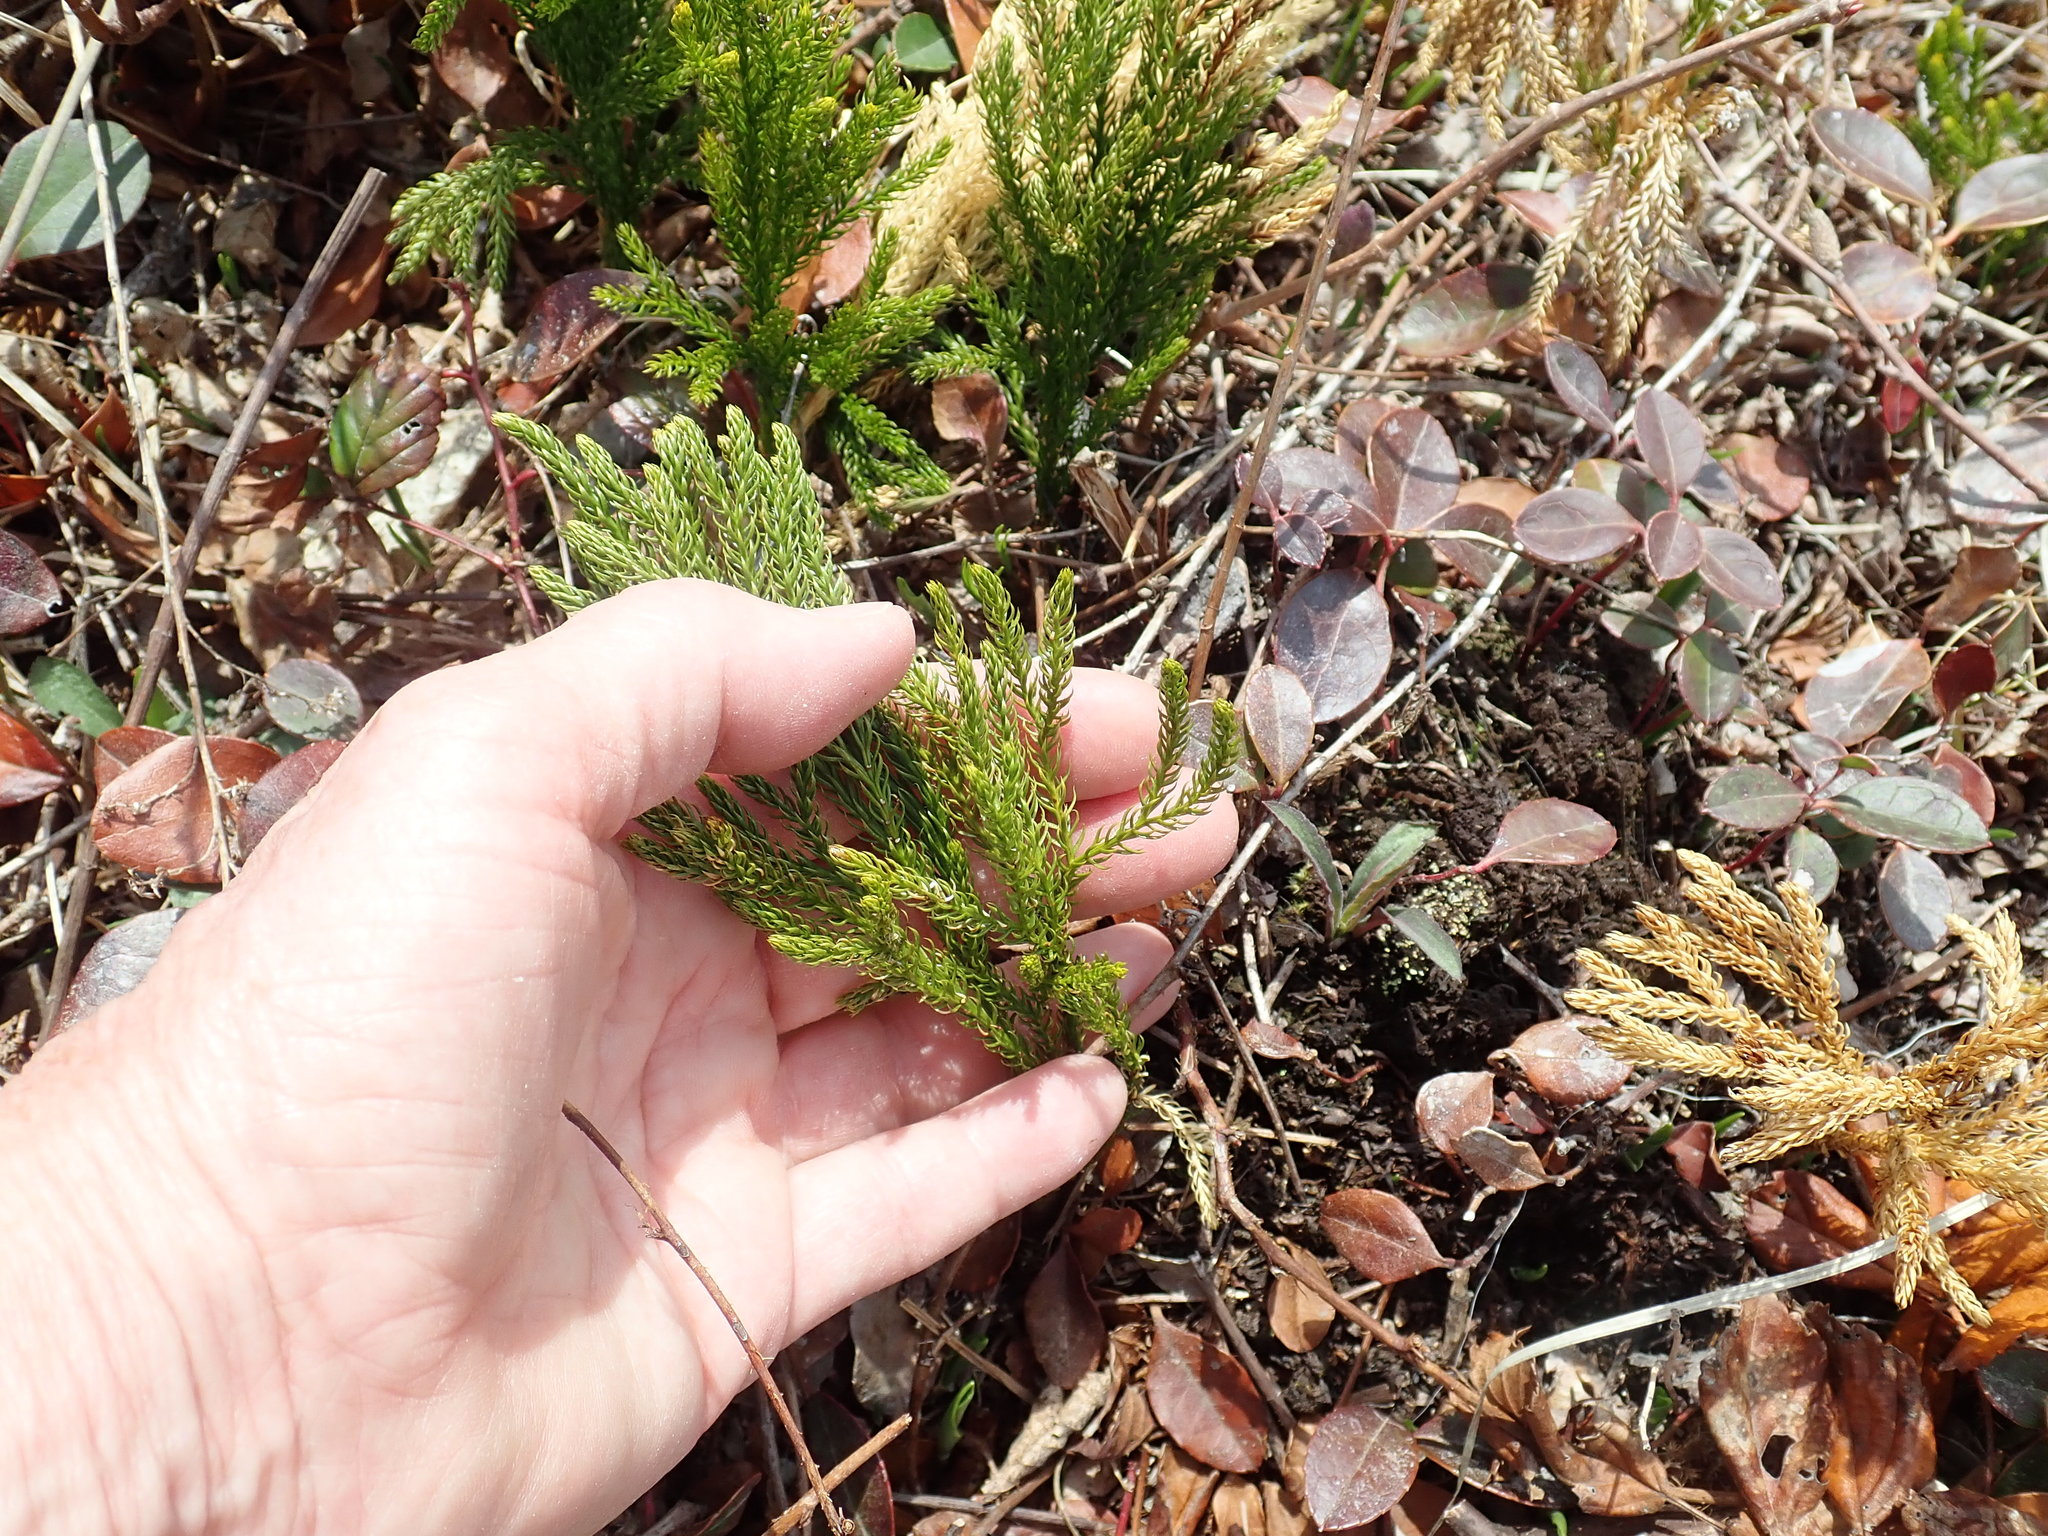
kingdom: Plantae
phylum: Tracheophyta
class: Lycopodiopsida
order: Lycopodiales
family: Lycopodiaceae
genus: Dendrolycopodium
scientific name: Dendrolycopodium hickeyi
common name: Hickey's clubmoss
